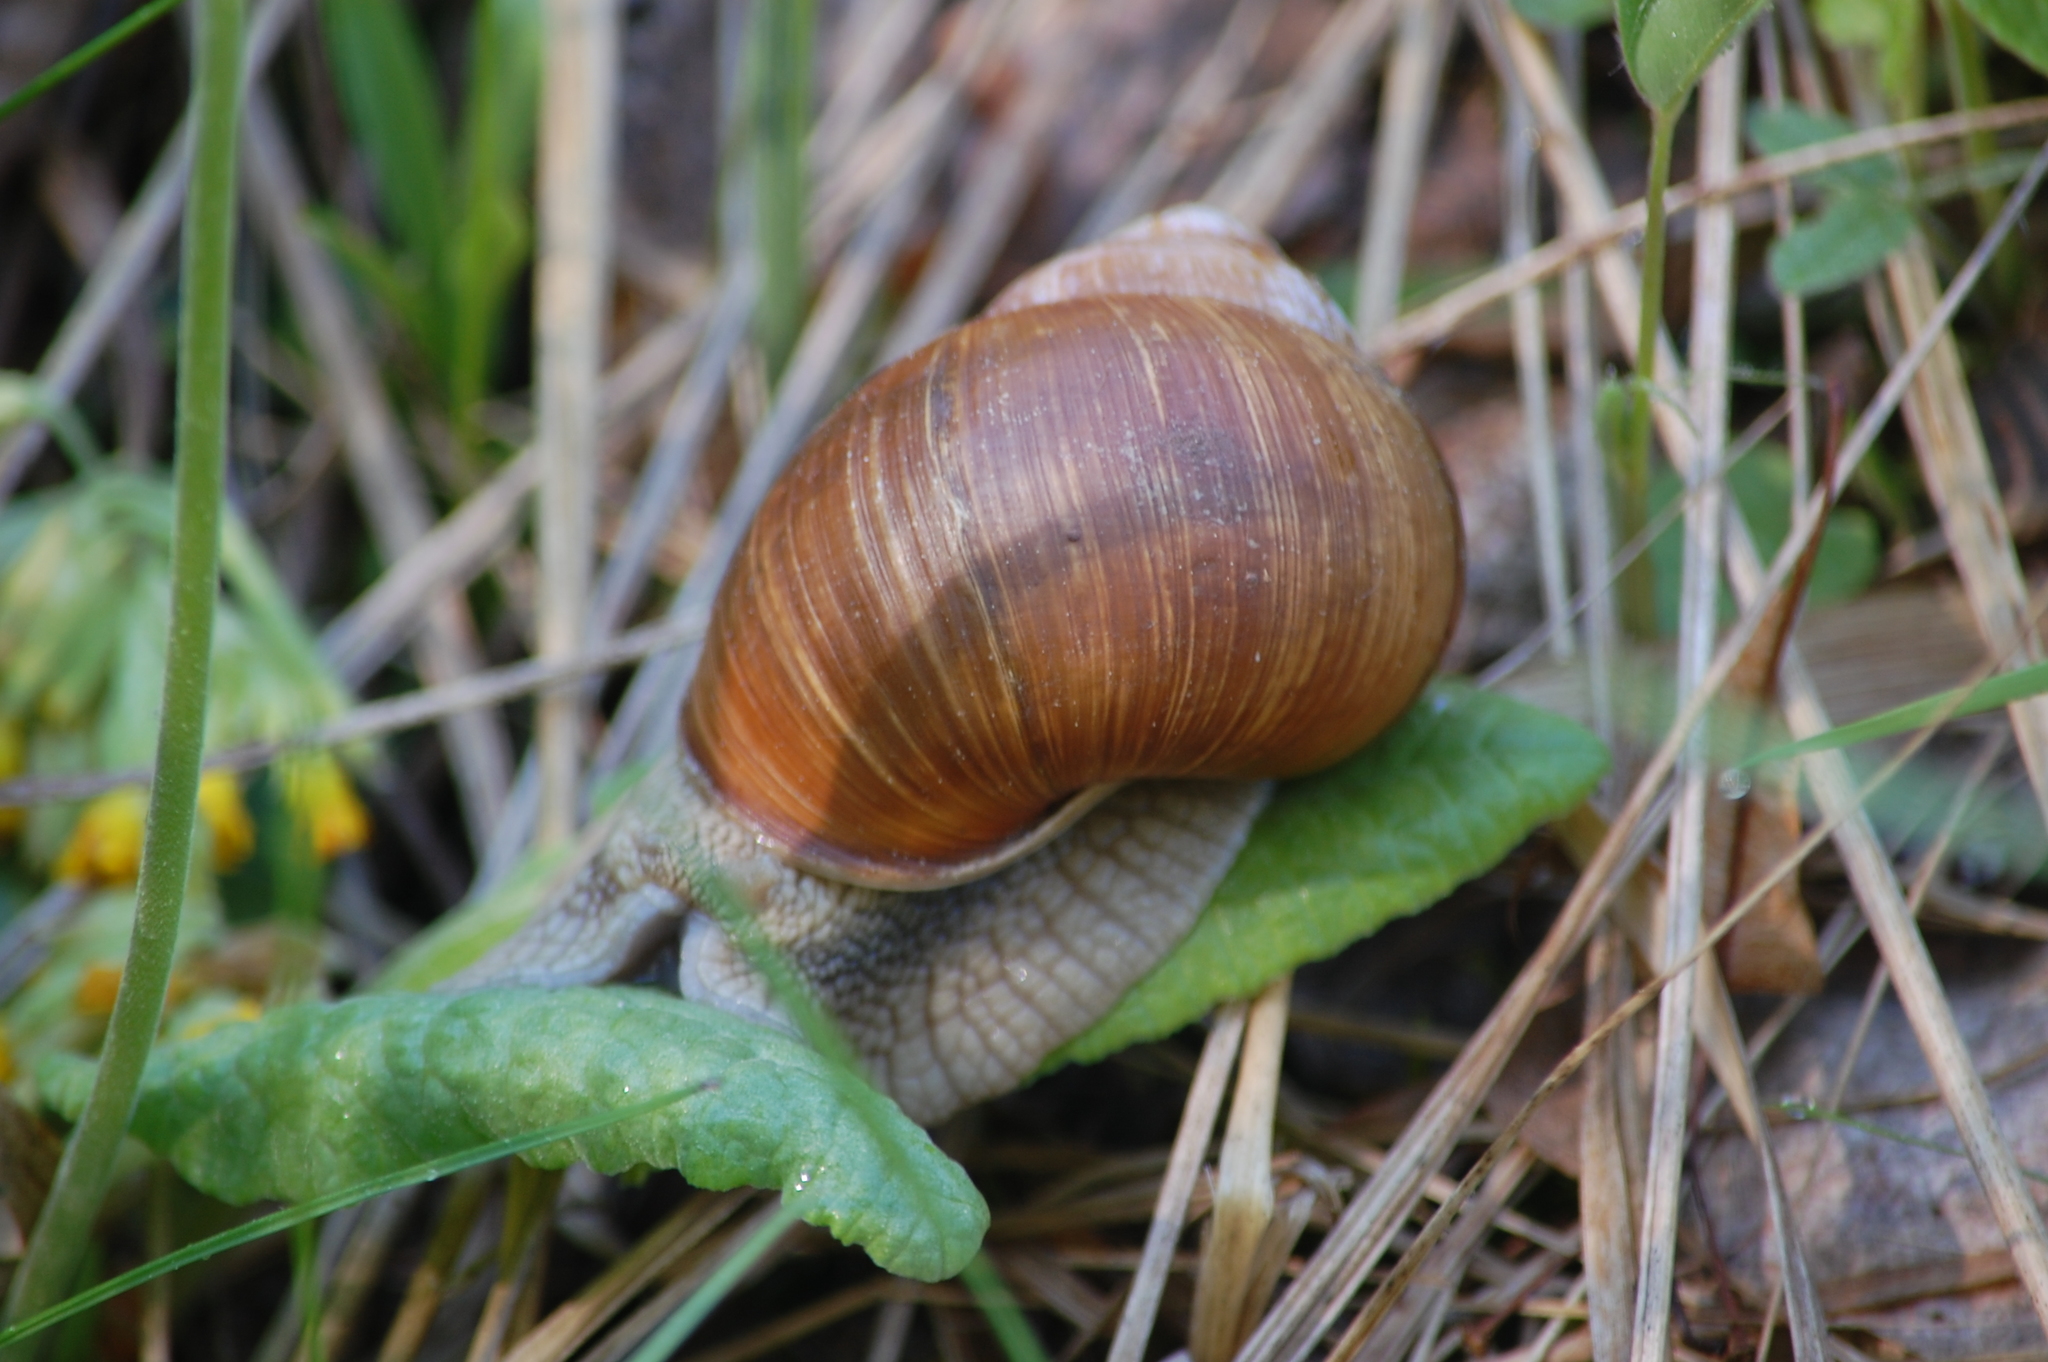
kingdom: Animalia
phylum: Mollusca
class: Gastropoda
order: Stylommatophora
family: Helicidae
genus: Helix
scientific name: Helix pomatia
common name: Roman snail
